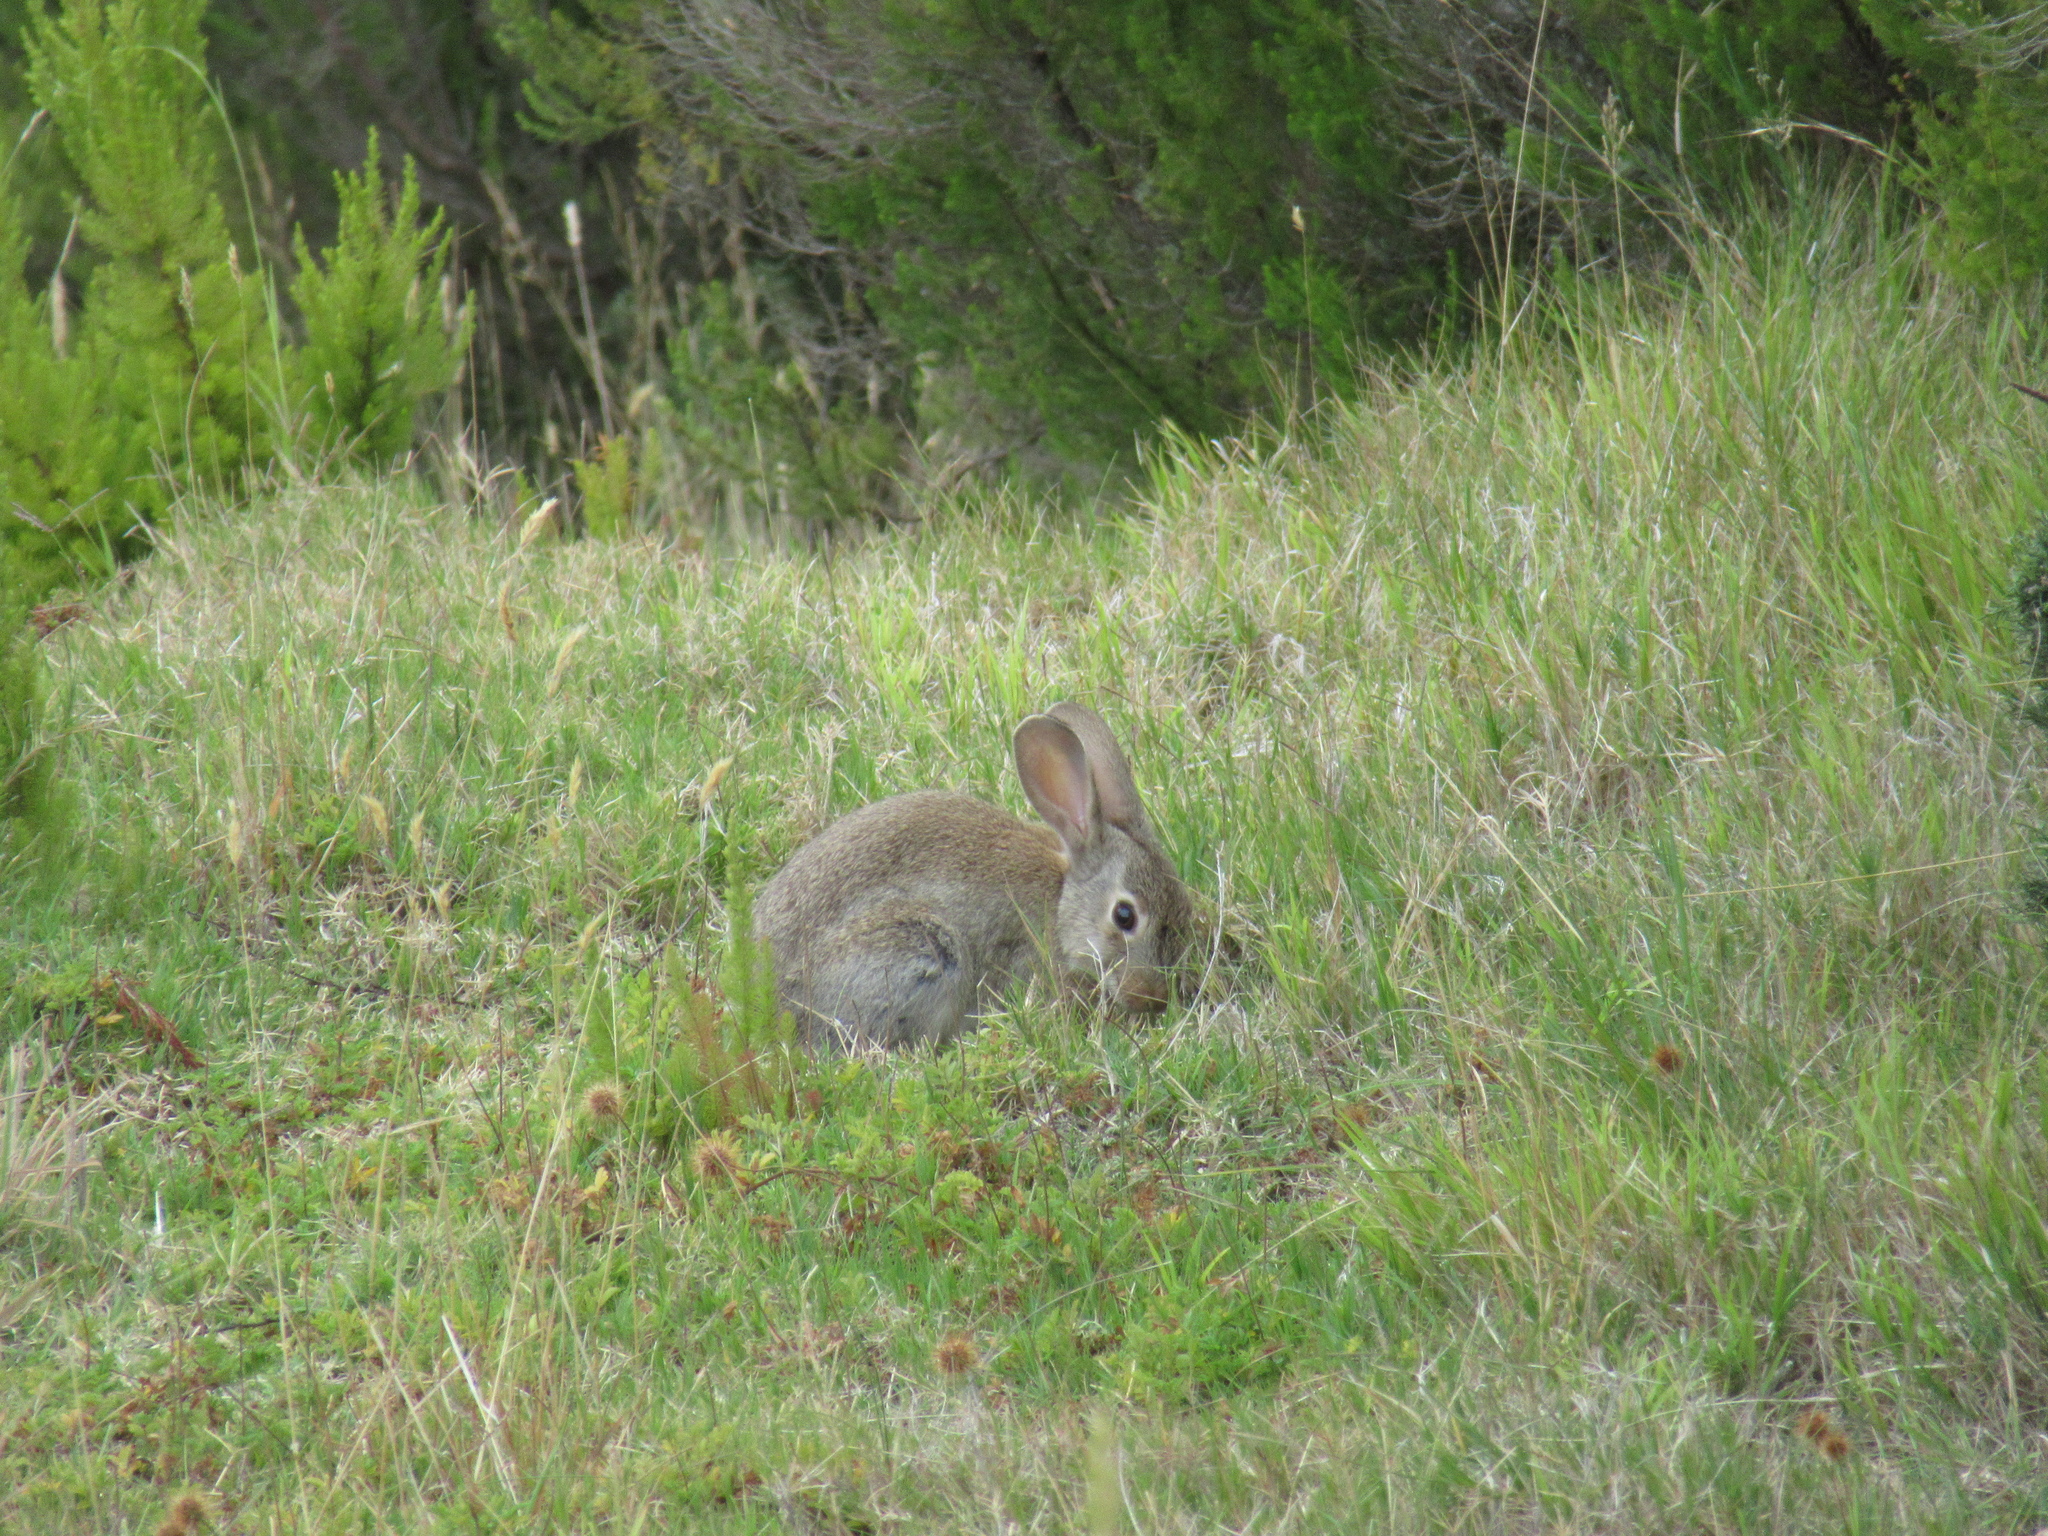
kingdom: Animalia
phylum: Chordata
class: Mammalia
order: Lagomorpha
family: Leporidae
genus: Oryctolagus
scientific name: Oryctolagus cuniculus
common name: European rabbit
